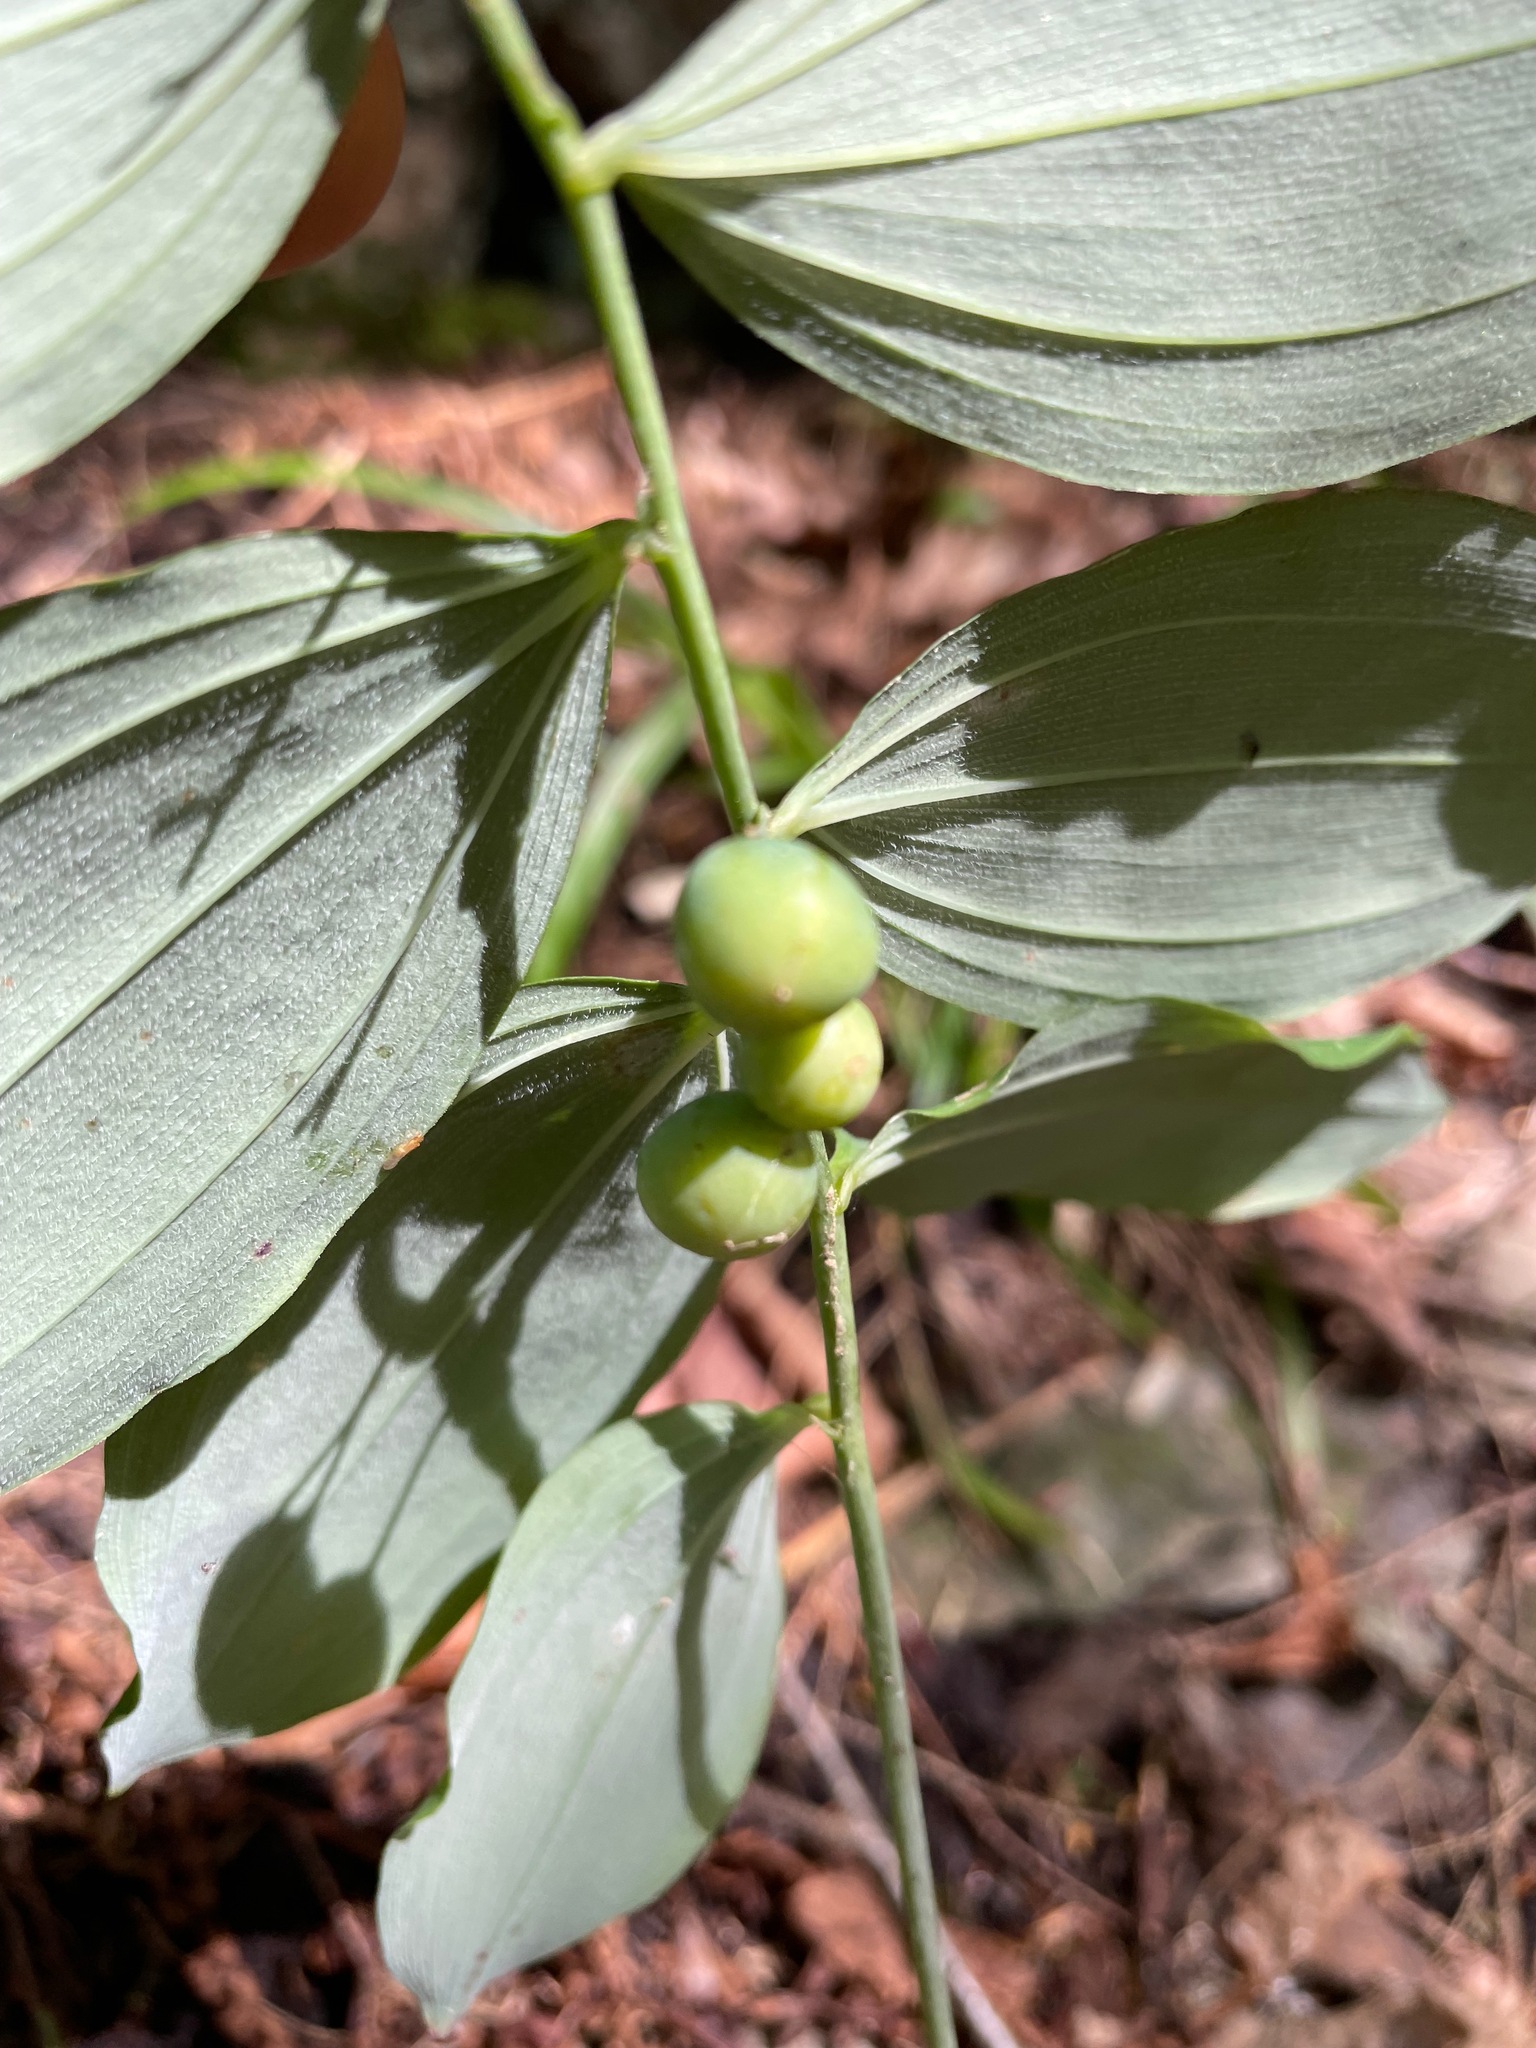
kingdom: Plantae
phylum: Tracheophyta
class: Liliopsida
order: Asparagales
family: Asparagaceae
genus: Polygonatum
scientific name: Polygonatum pubescens
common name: Downy solomon's seal
